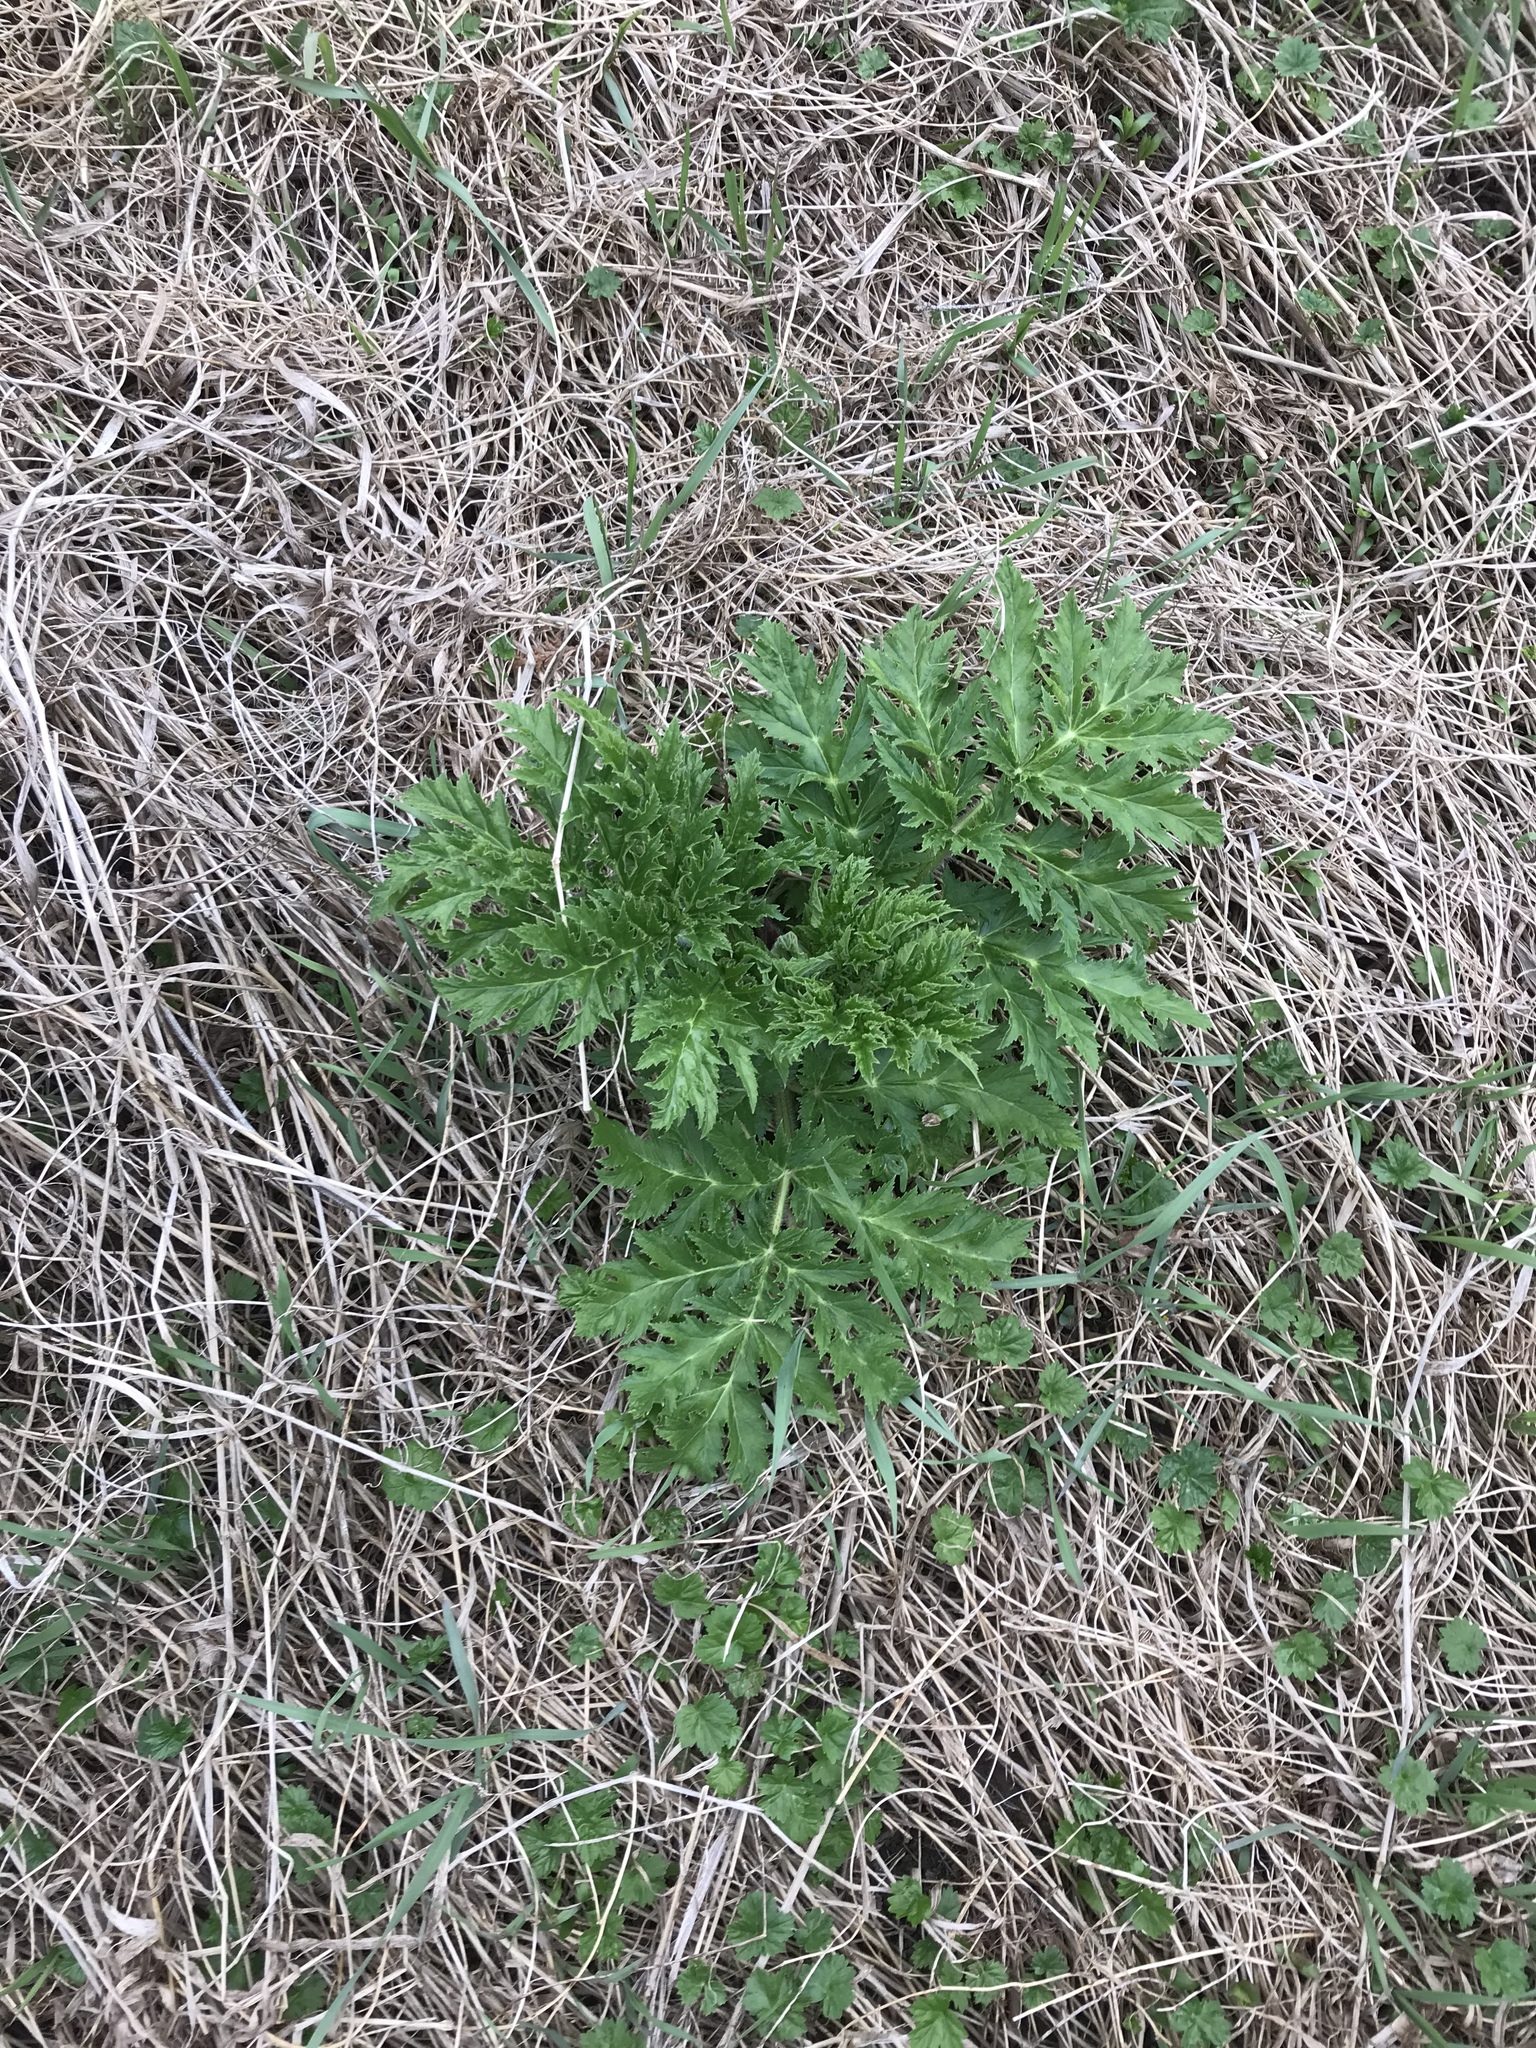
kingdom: Plantae
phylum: Tracheophyta
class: Magnoliopsida
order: Apiales
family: Apiaceae
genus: Heracleum
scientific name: Heracleum mantegazzianum
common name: Giant hogweed
